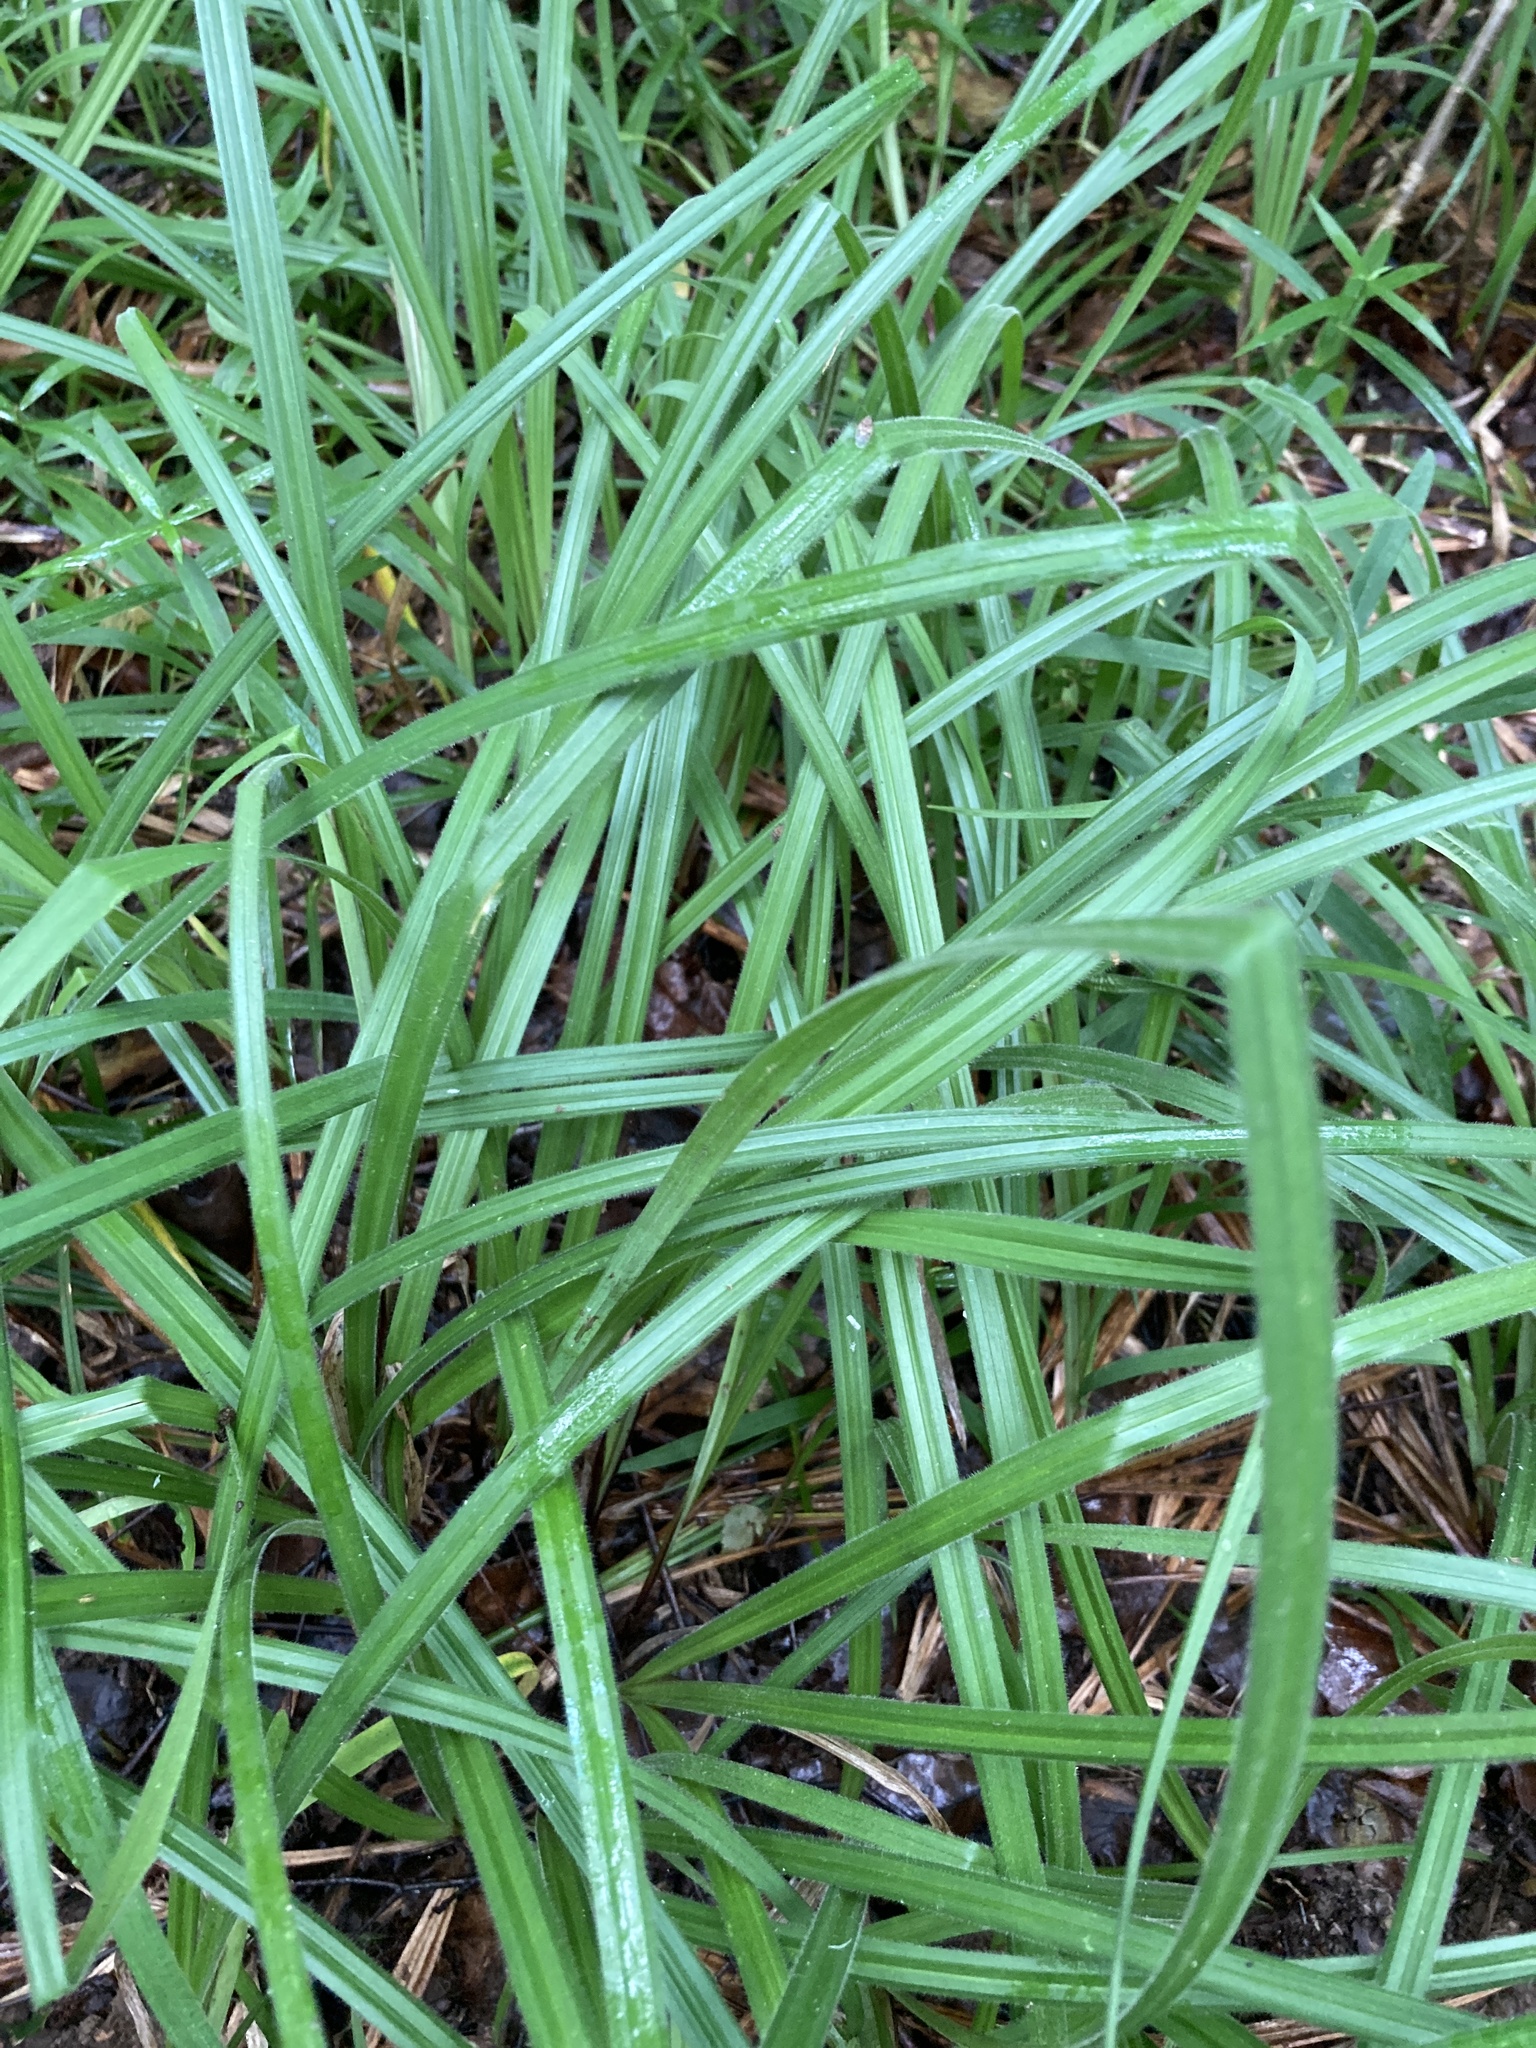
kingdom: Plantae
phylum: Tracheophyta
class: Liliopsida
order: Poales
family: Cyperaceae
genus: Carex
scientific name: Carex pilosa
